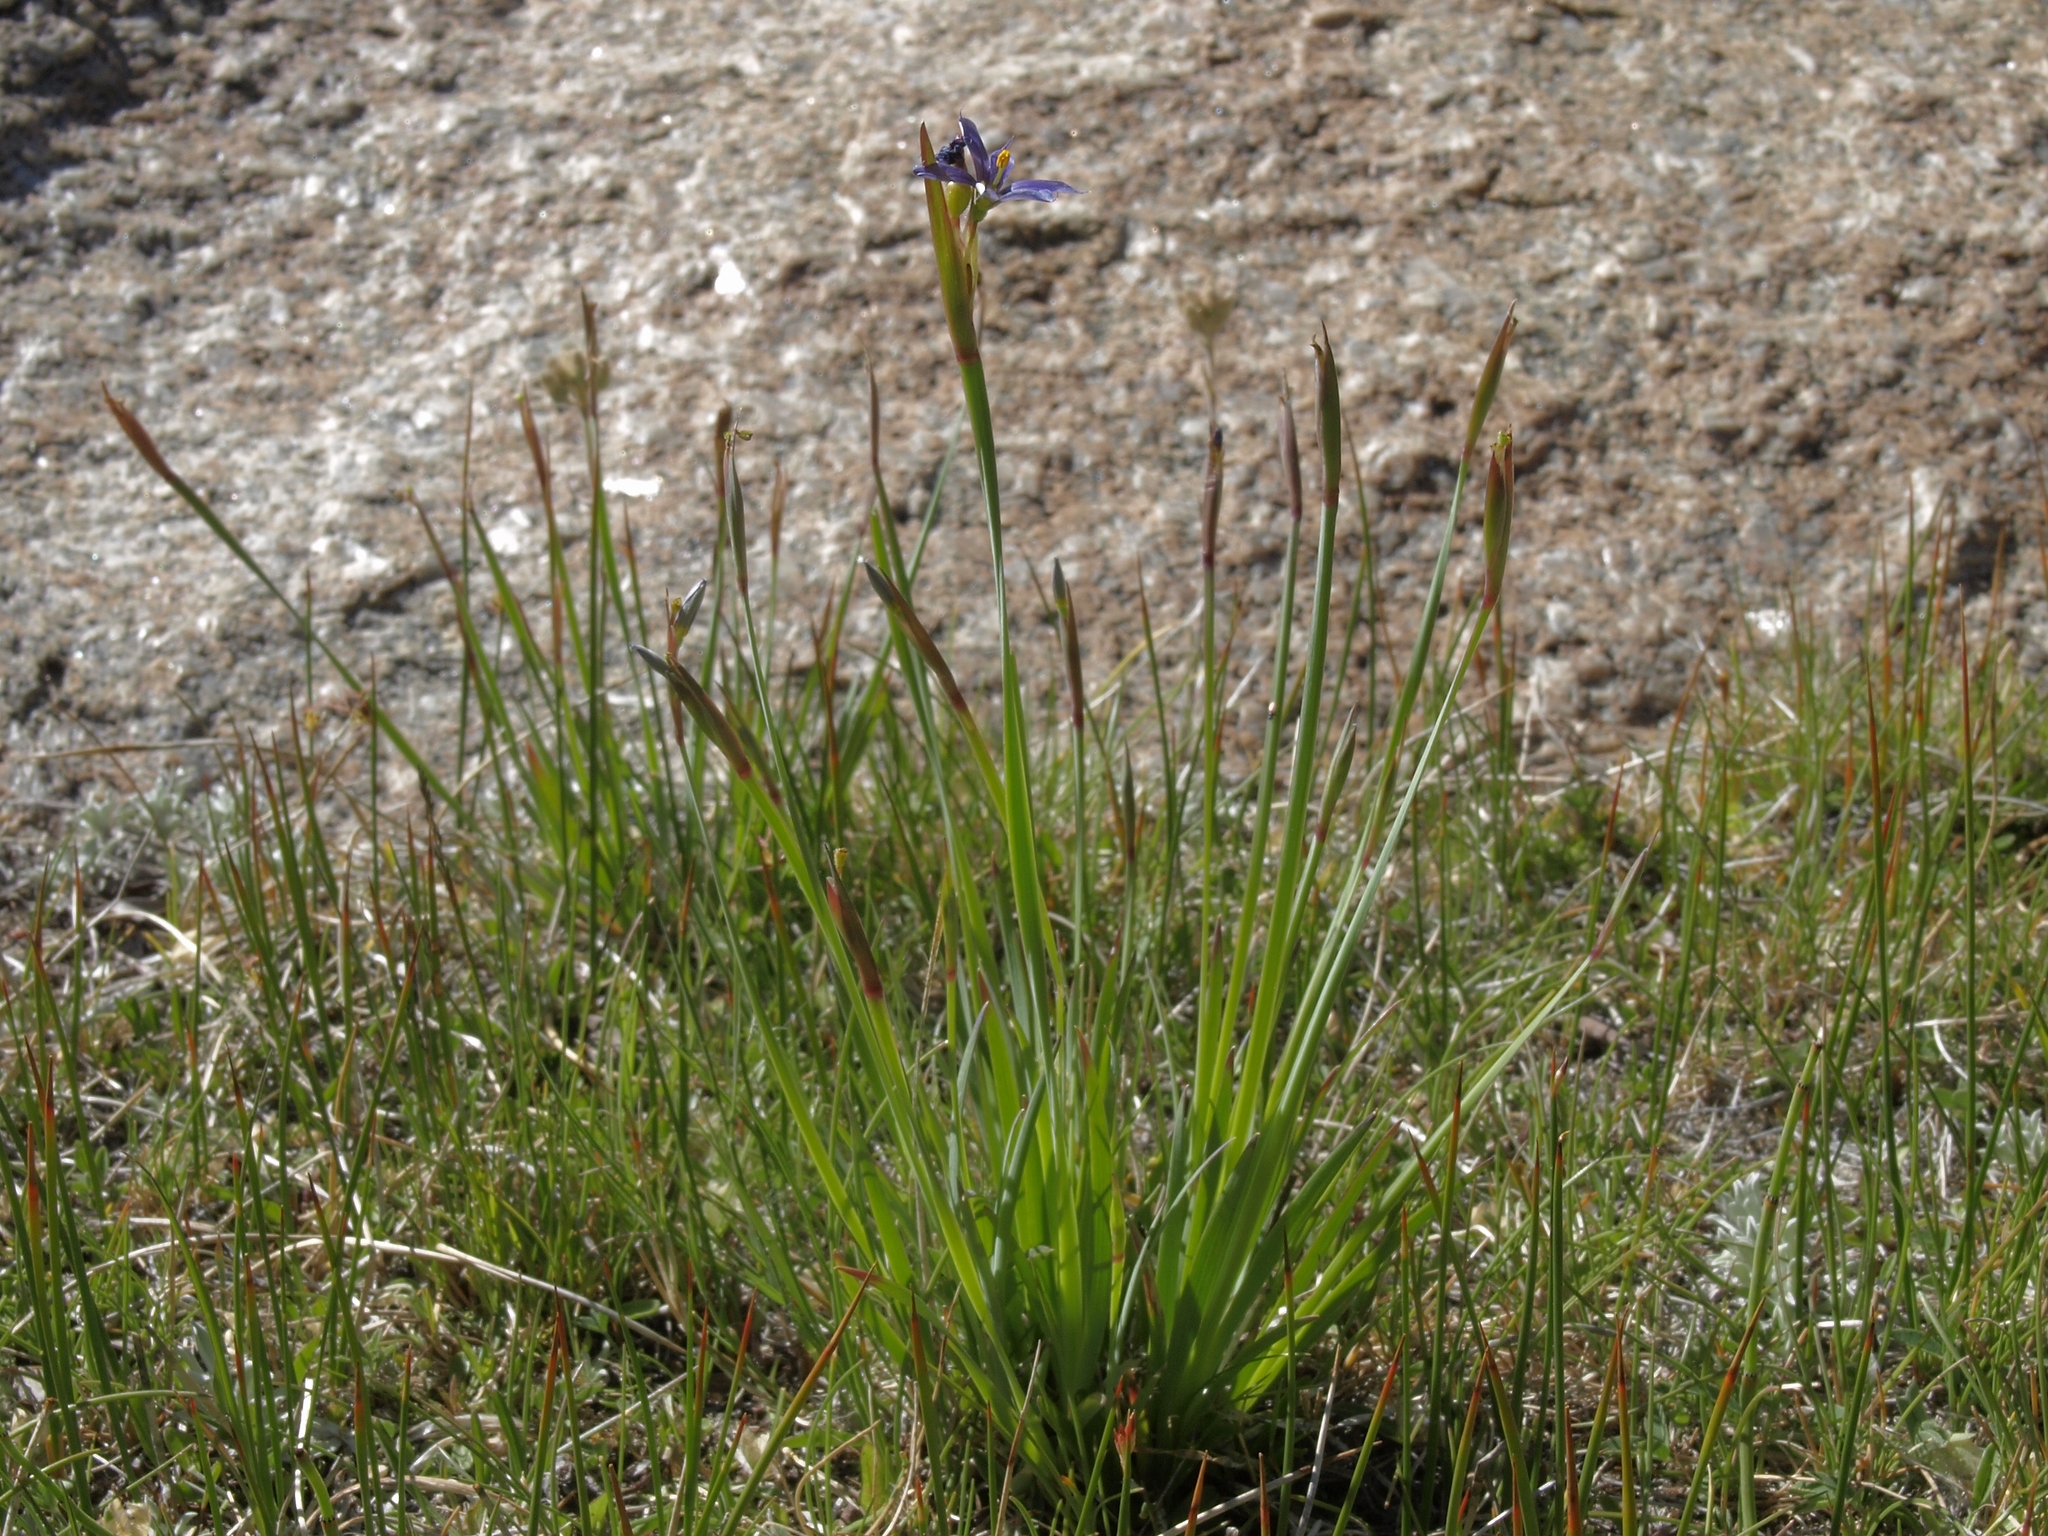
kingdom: Plantae
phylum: Tracheophyta
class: Liliopsida
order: Asparagales
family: Iridaceae
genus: Sisyrinchium
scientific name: Sisyrinchium idahoense
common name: Idaho blue-eyed-grass
